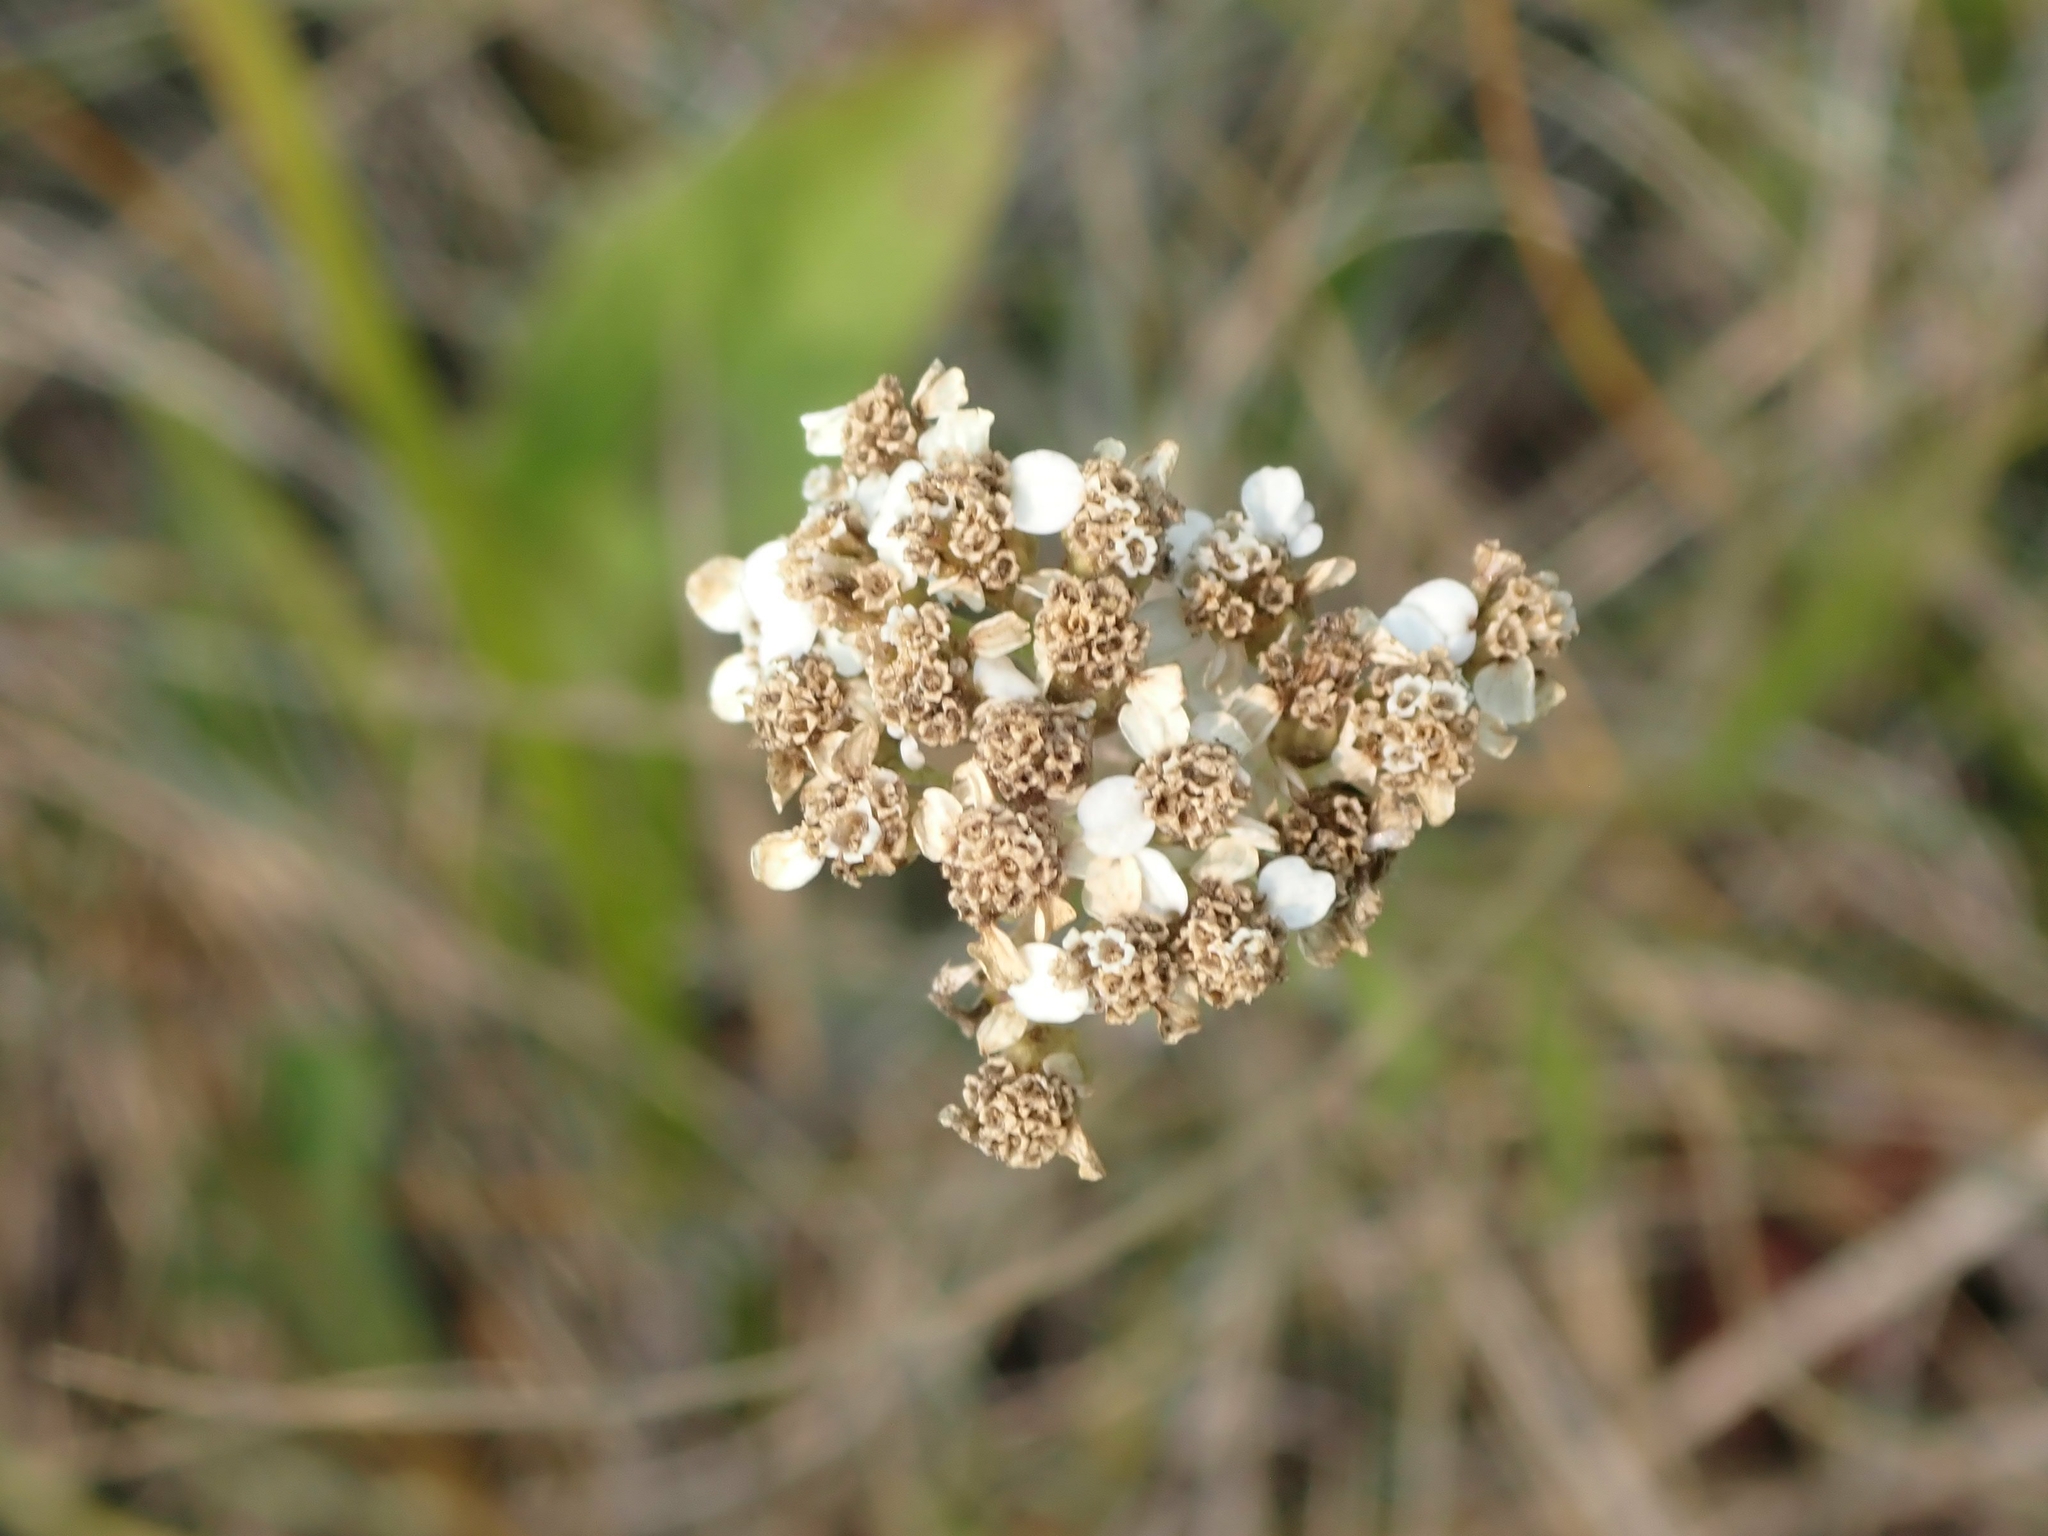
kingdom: Plantae
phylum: Tracheophyta
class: Magnoliopsida
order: Asterales
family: Asteraceae
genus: Achillea
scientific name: Achillea millefolium
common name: Yarrow
